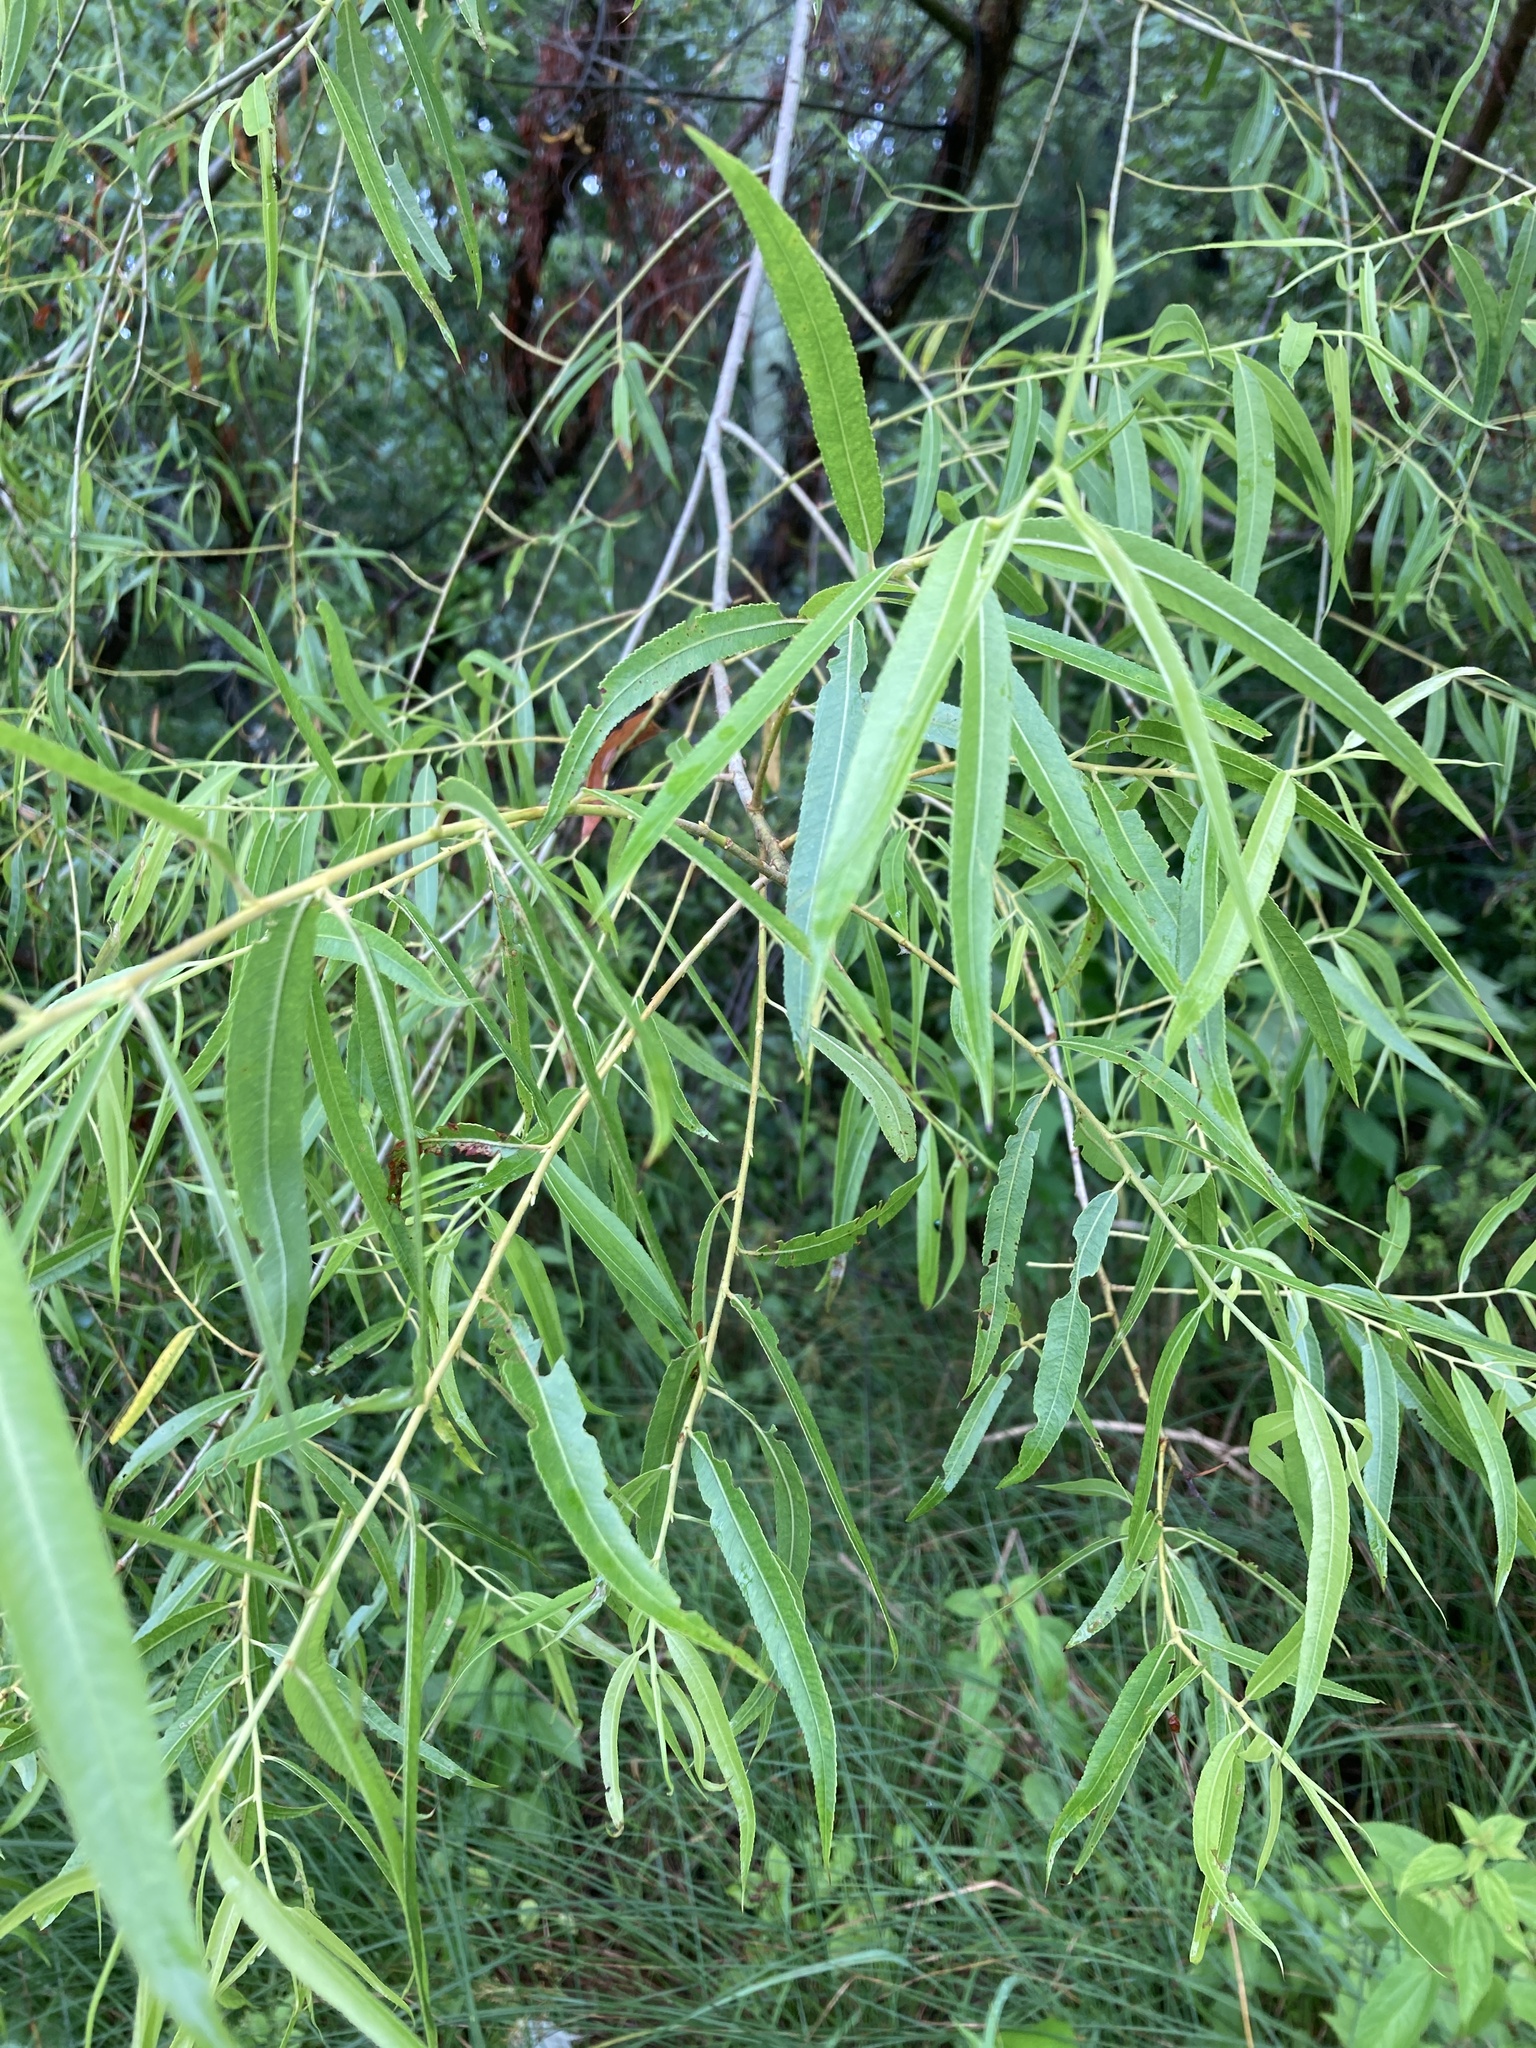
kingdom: Plantae
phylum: Tracheophyta
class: Magnoliopsida
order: Malpighiales
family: Salicaceae
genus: Salix
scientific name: Salix nigra
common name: Black willow
